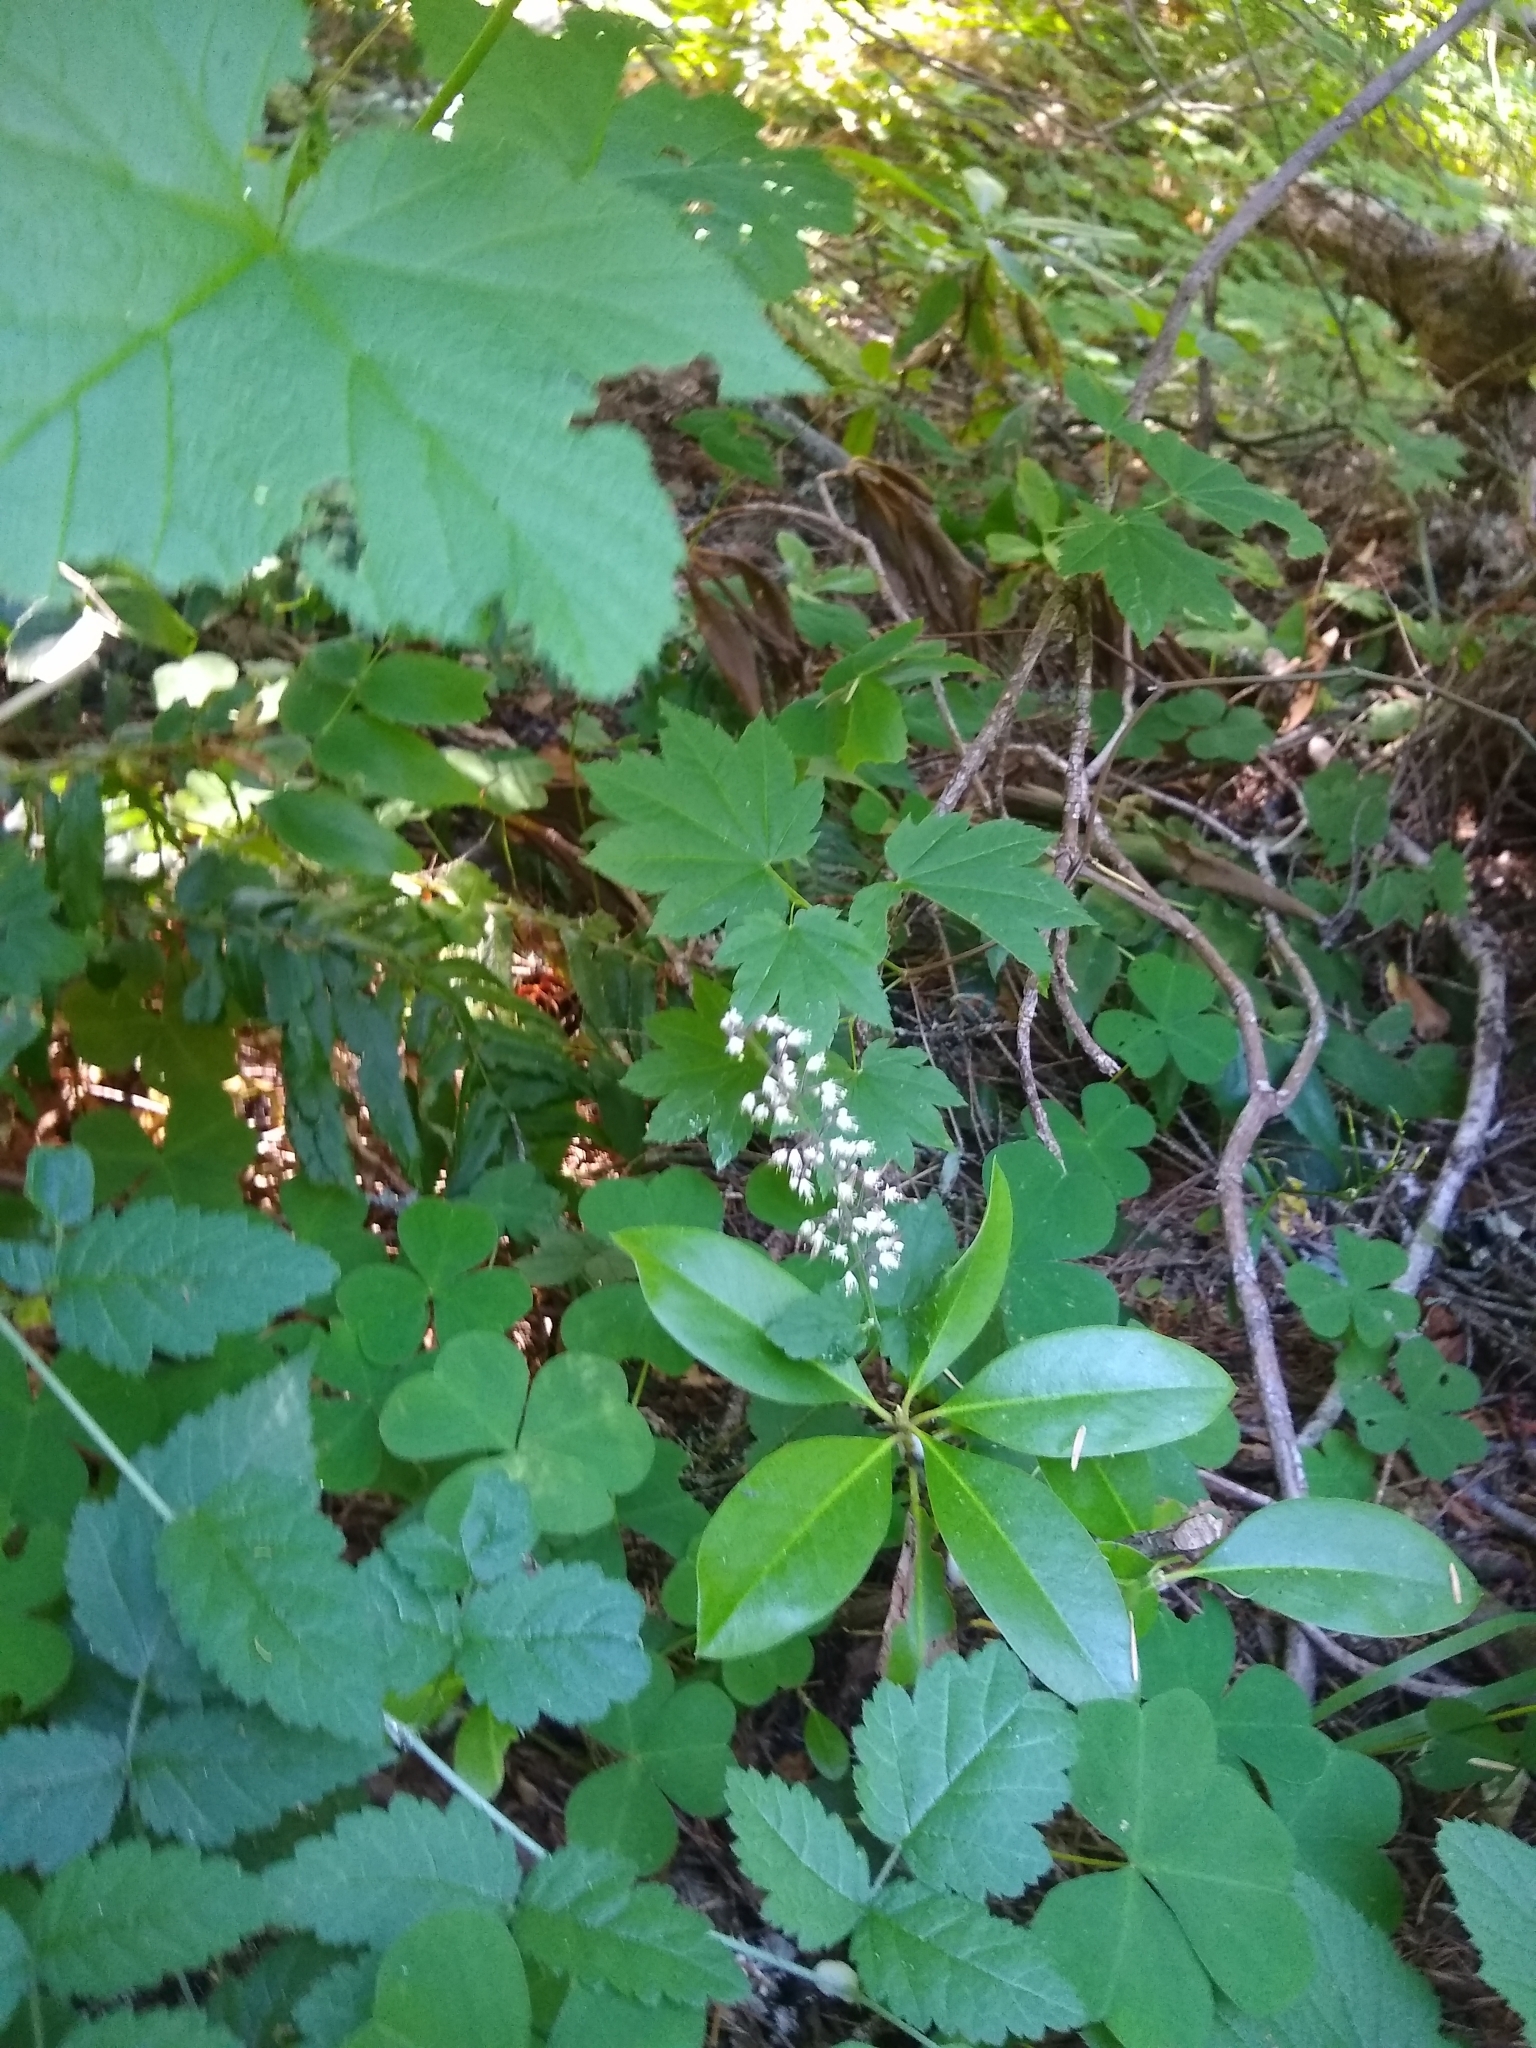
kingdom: Plantae
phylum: Tracheophyta
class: Magnoliopsida
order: Saxifragales
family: Saxifragaceae
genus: Tiarella
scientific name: Tiarella trifoliata
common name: Sugar-scoop
